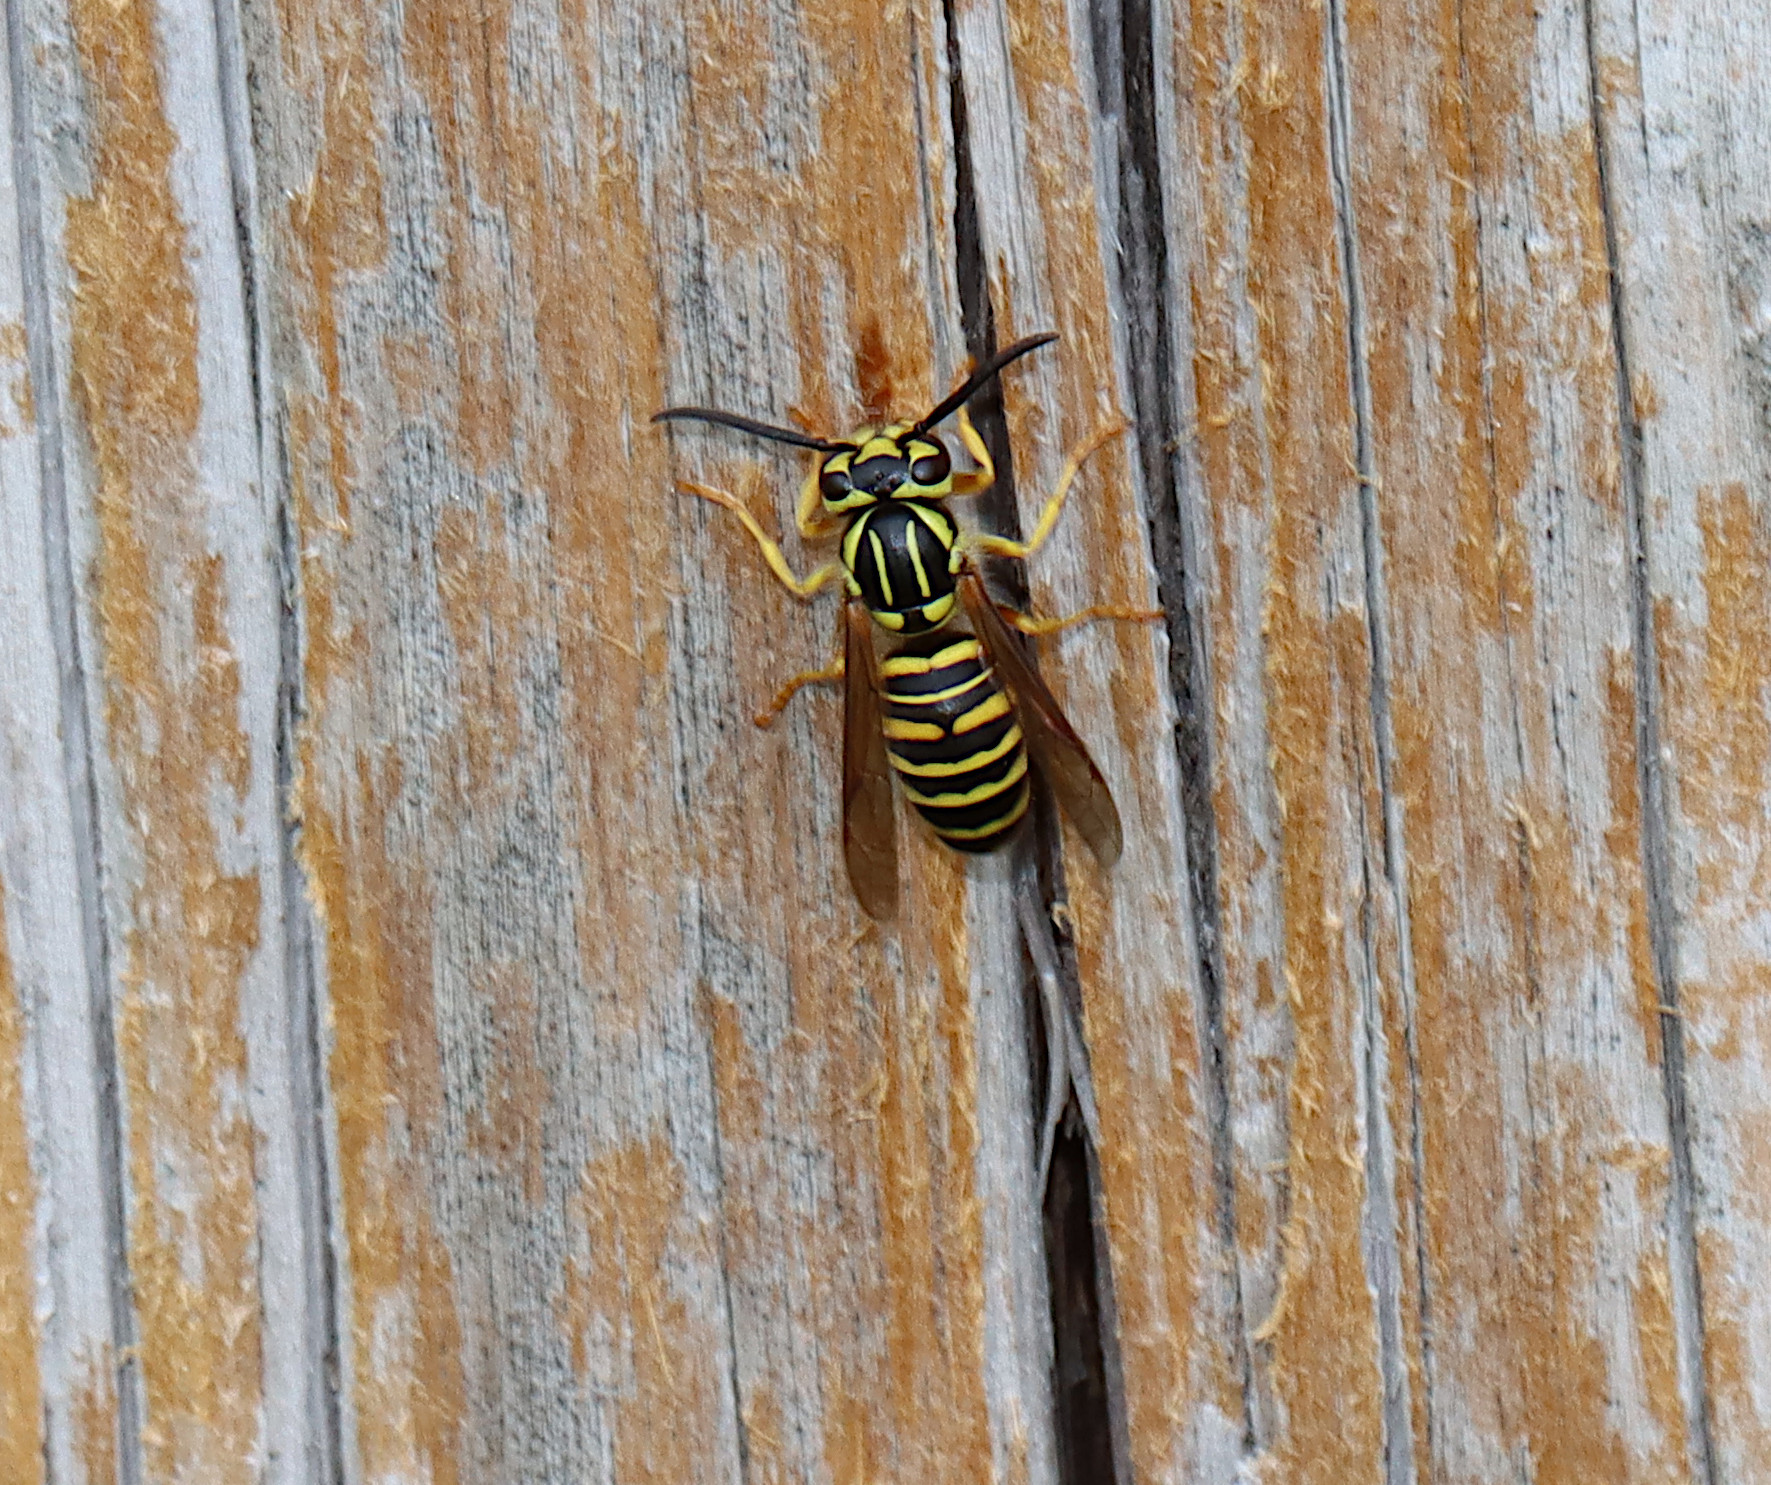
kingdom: Animalia
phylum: Arthropoda
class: Insecta
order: Hymenoptera
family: Vespidae
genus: Vespula
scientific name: Vespula squamosa
